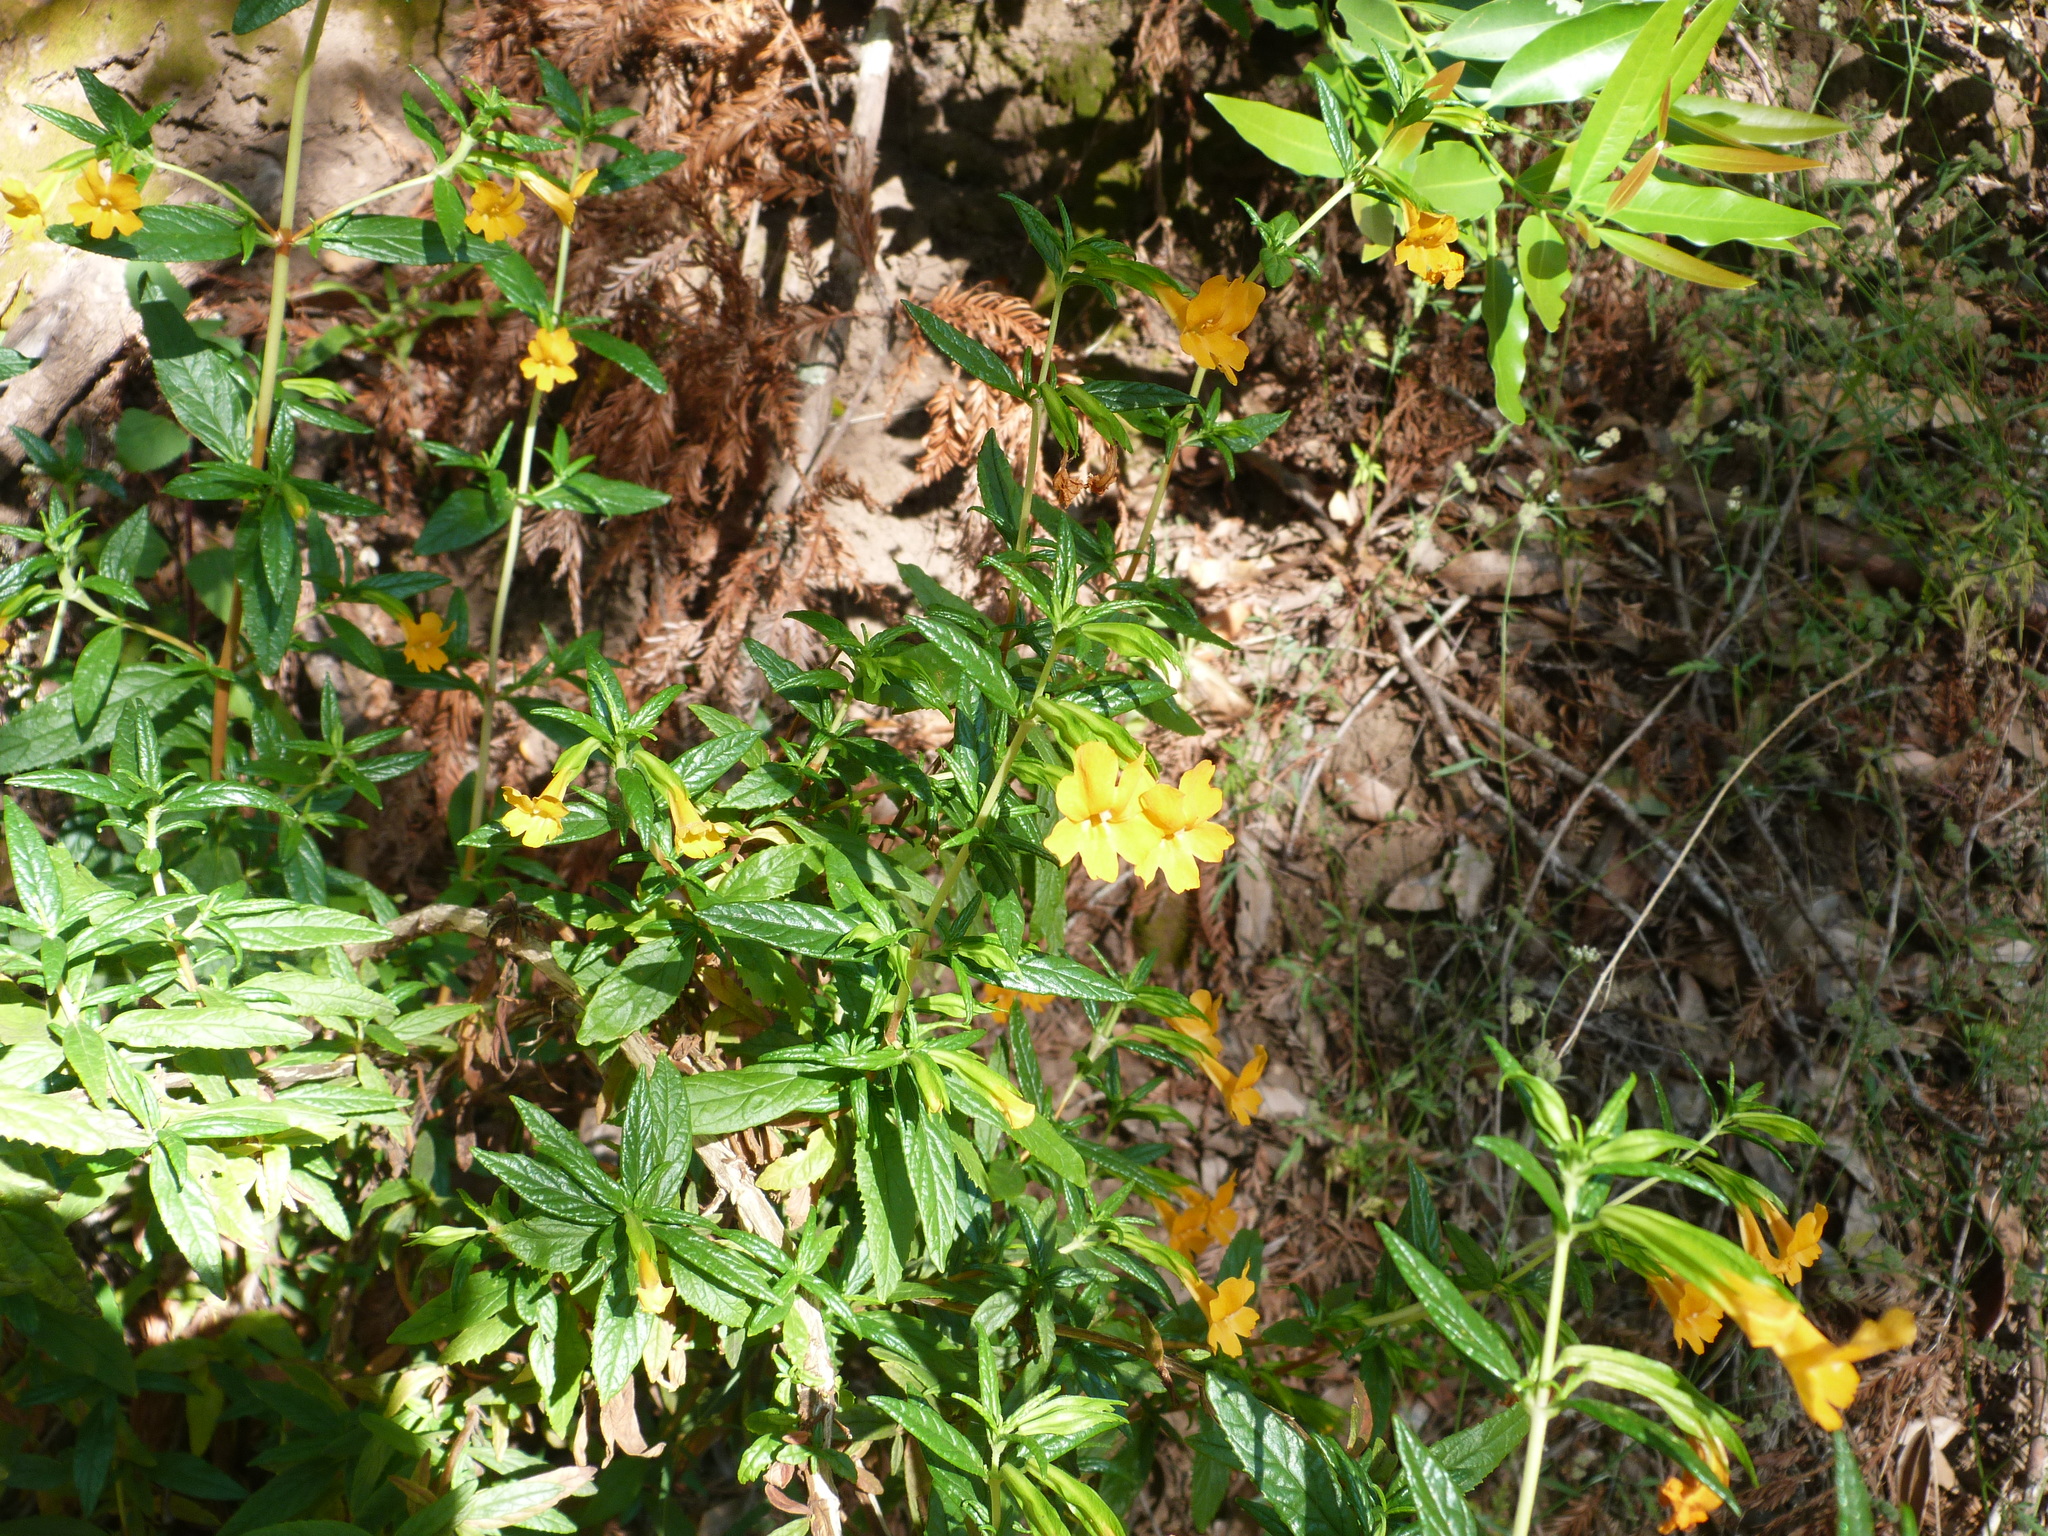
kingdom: Plantae
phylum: Tracheophyta
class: Magnoliopsida
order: Lamiales
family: Phrymaceae
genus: Diplacus
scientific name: Diplacus aurantiacus
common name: Bush monkey-flower
